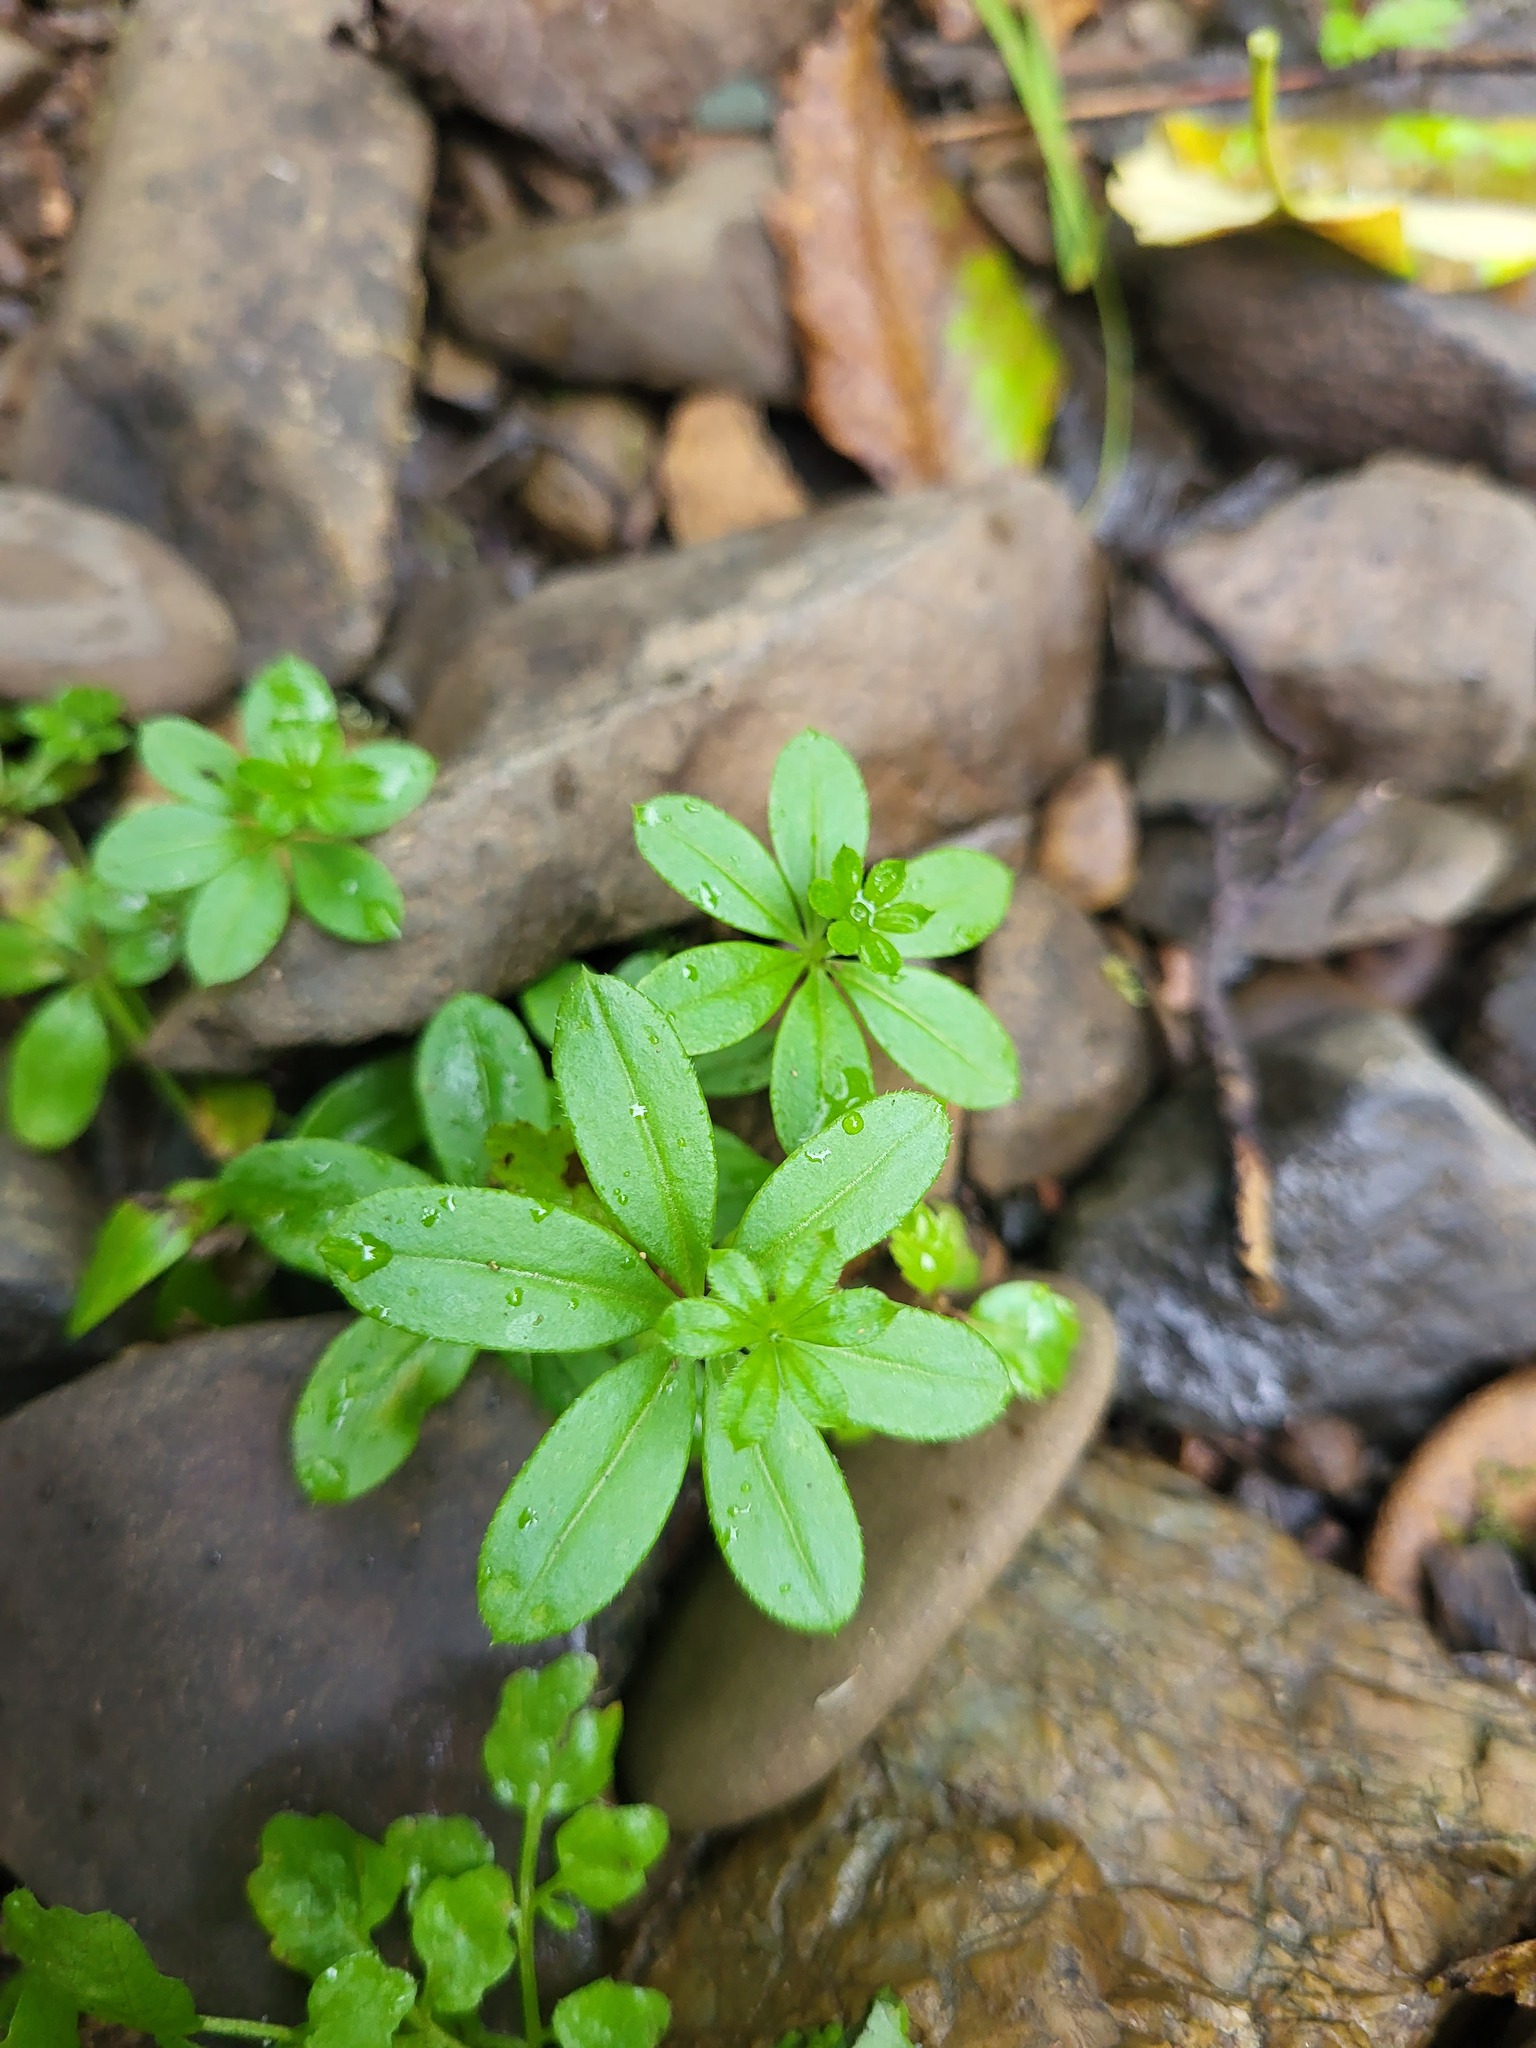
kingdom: Plantae
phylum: Tracheophyta
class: Magnoliopsida
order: Gentianales
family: Rubiaceae
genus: Galium
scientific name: Galium triflorum
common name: Fragrant bedstraw
